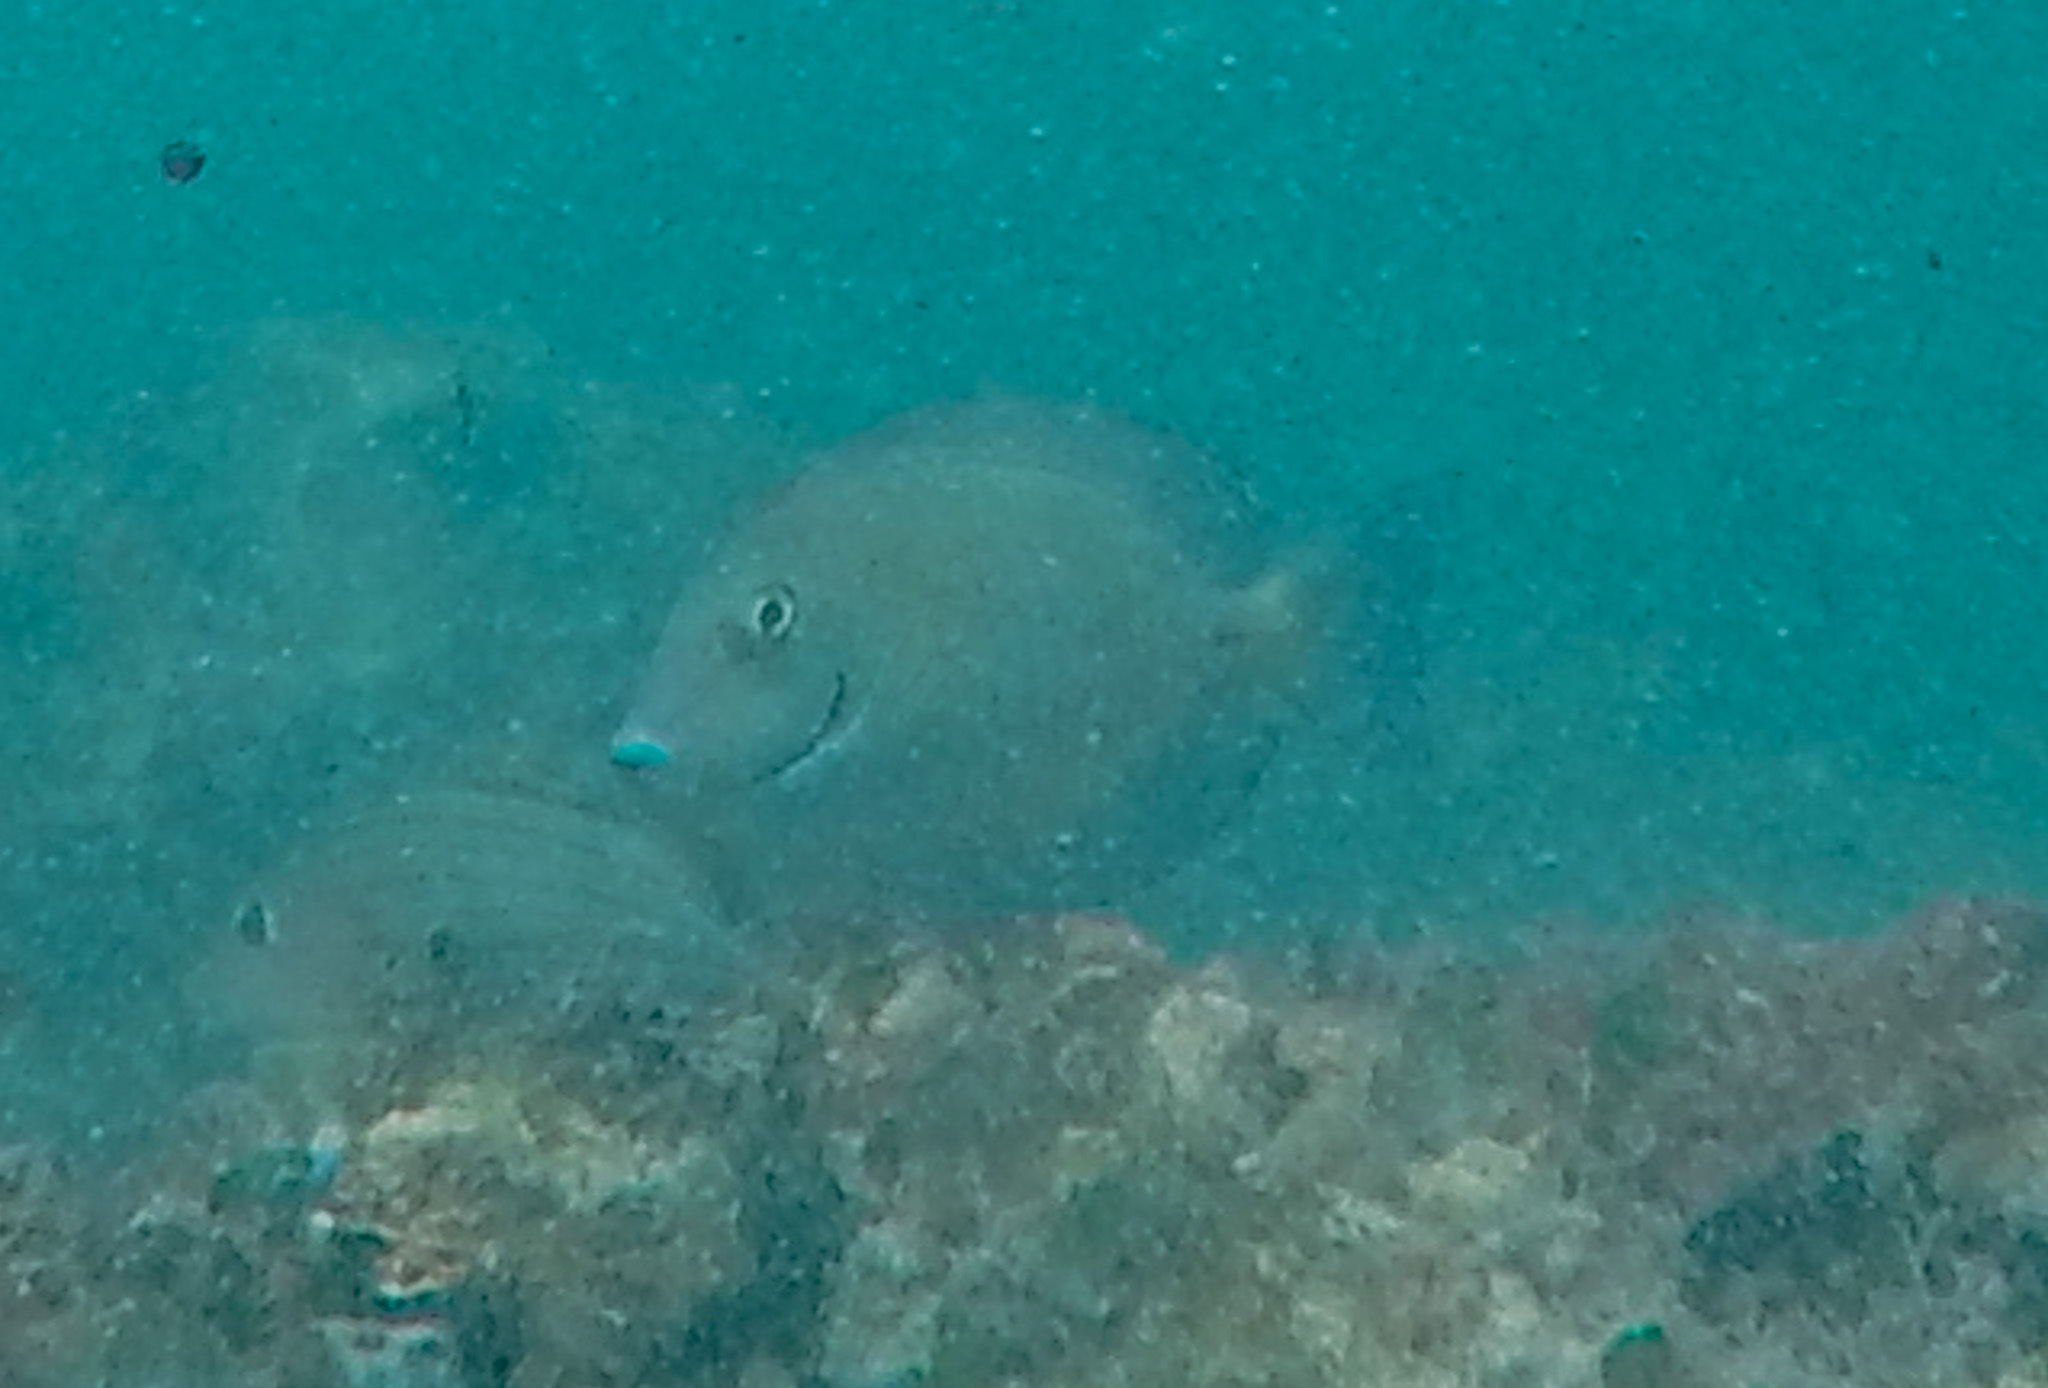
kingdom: Animalia
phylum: Chordata
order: Perciformes
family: Acanthuridae
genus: Acanthurus
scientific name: Acanthurus chirurgus
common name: Doctorfish
